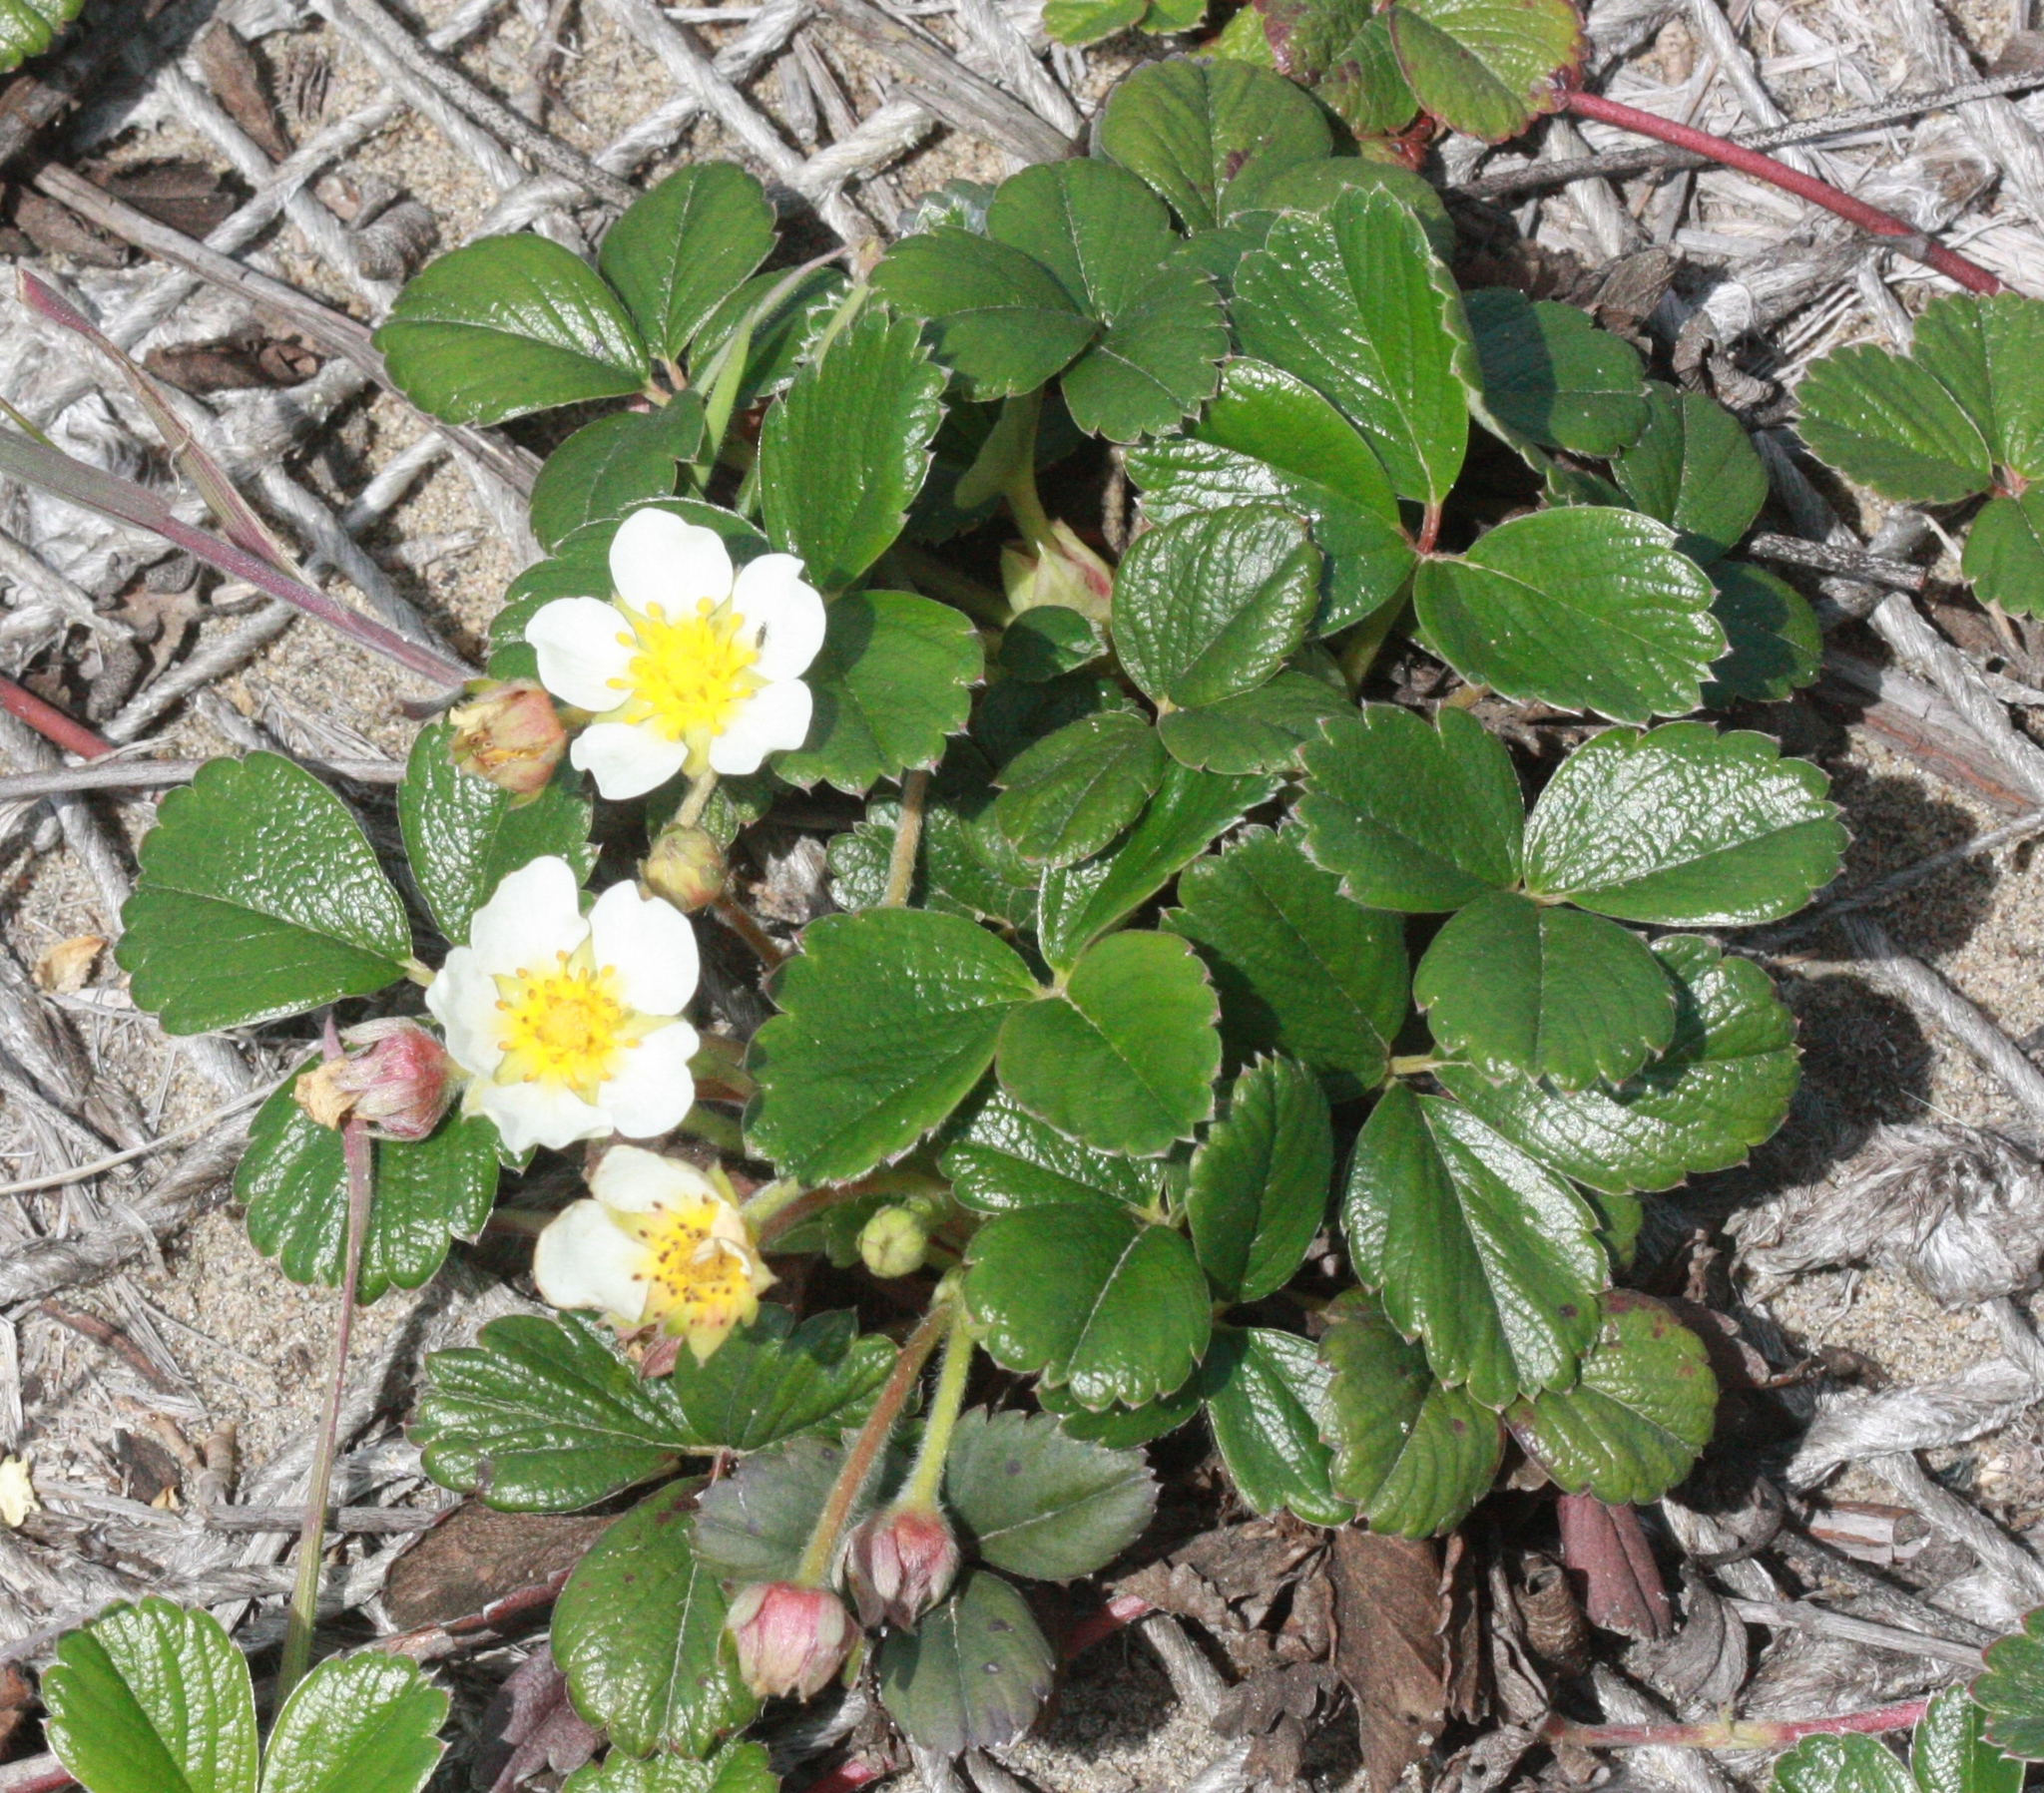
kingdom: Plantae
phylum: Tracheophyta
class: Magnoliopsida
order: Rosales
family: Rosaceae
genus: Fragaria
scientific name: Fragaria chiloensis
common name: Beach strawberry
